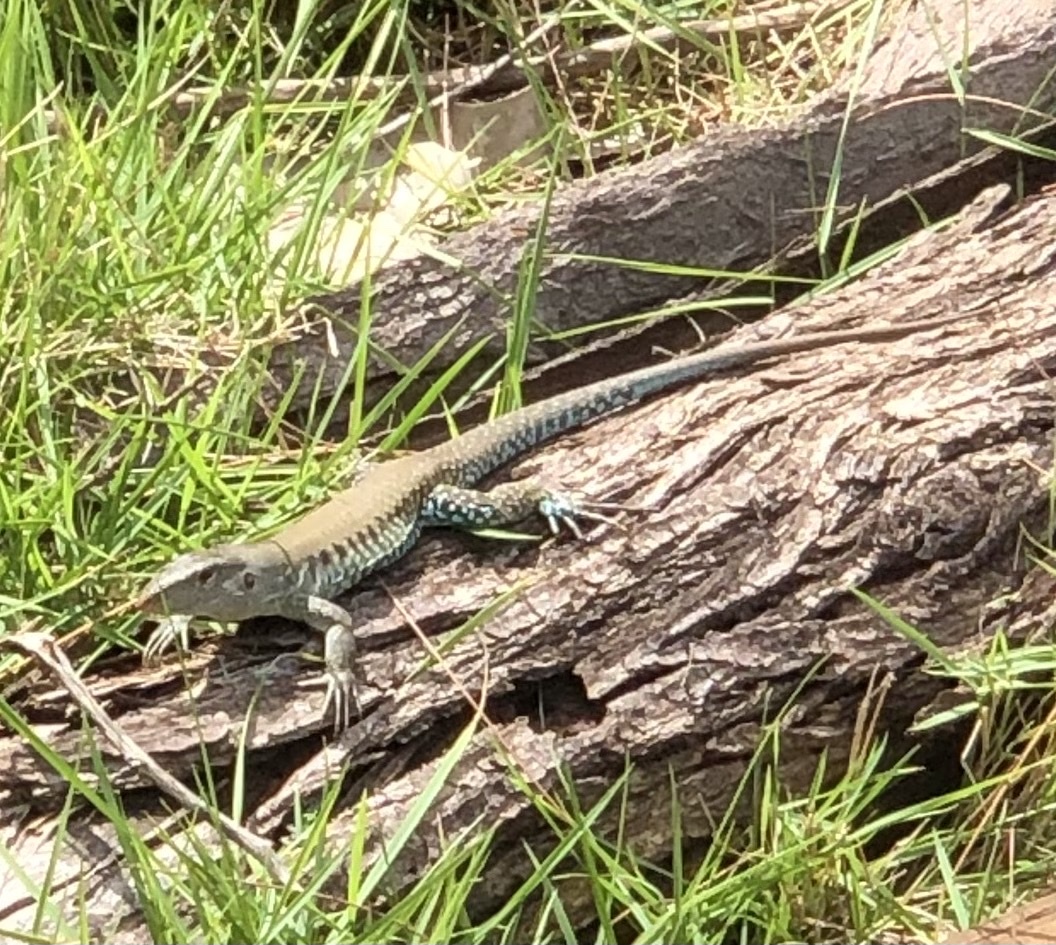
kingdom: Animalia
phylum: Chordata
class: Squamata
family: Teiidae
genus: Pholidoscelis
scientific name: Pholidoscelis exsul
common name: Common puerto rican ameiva
